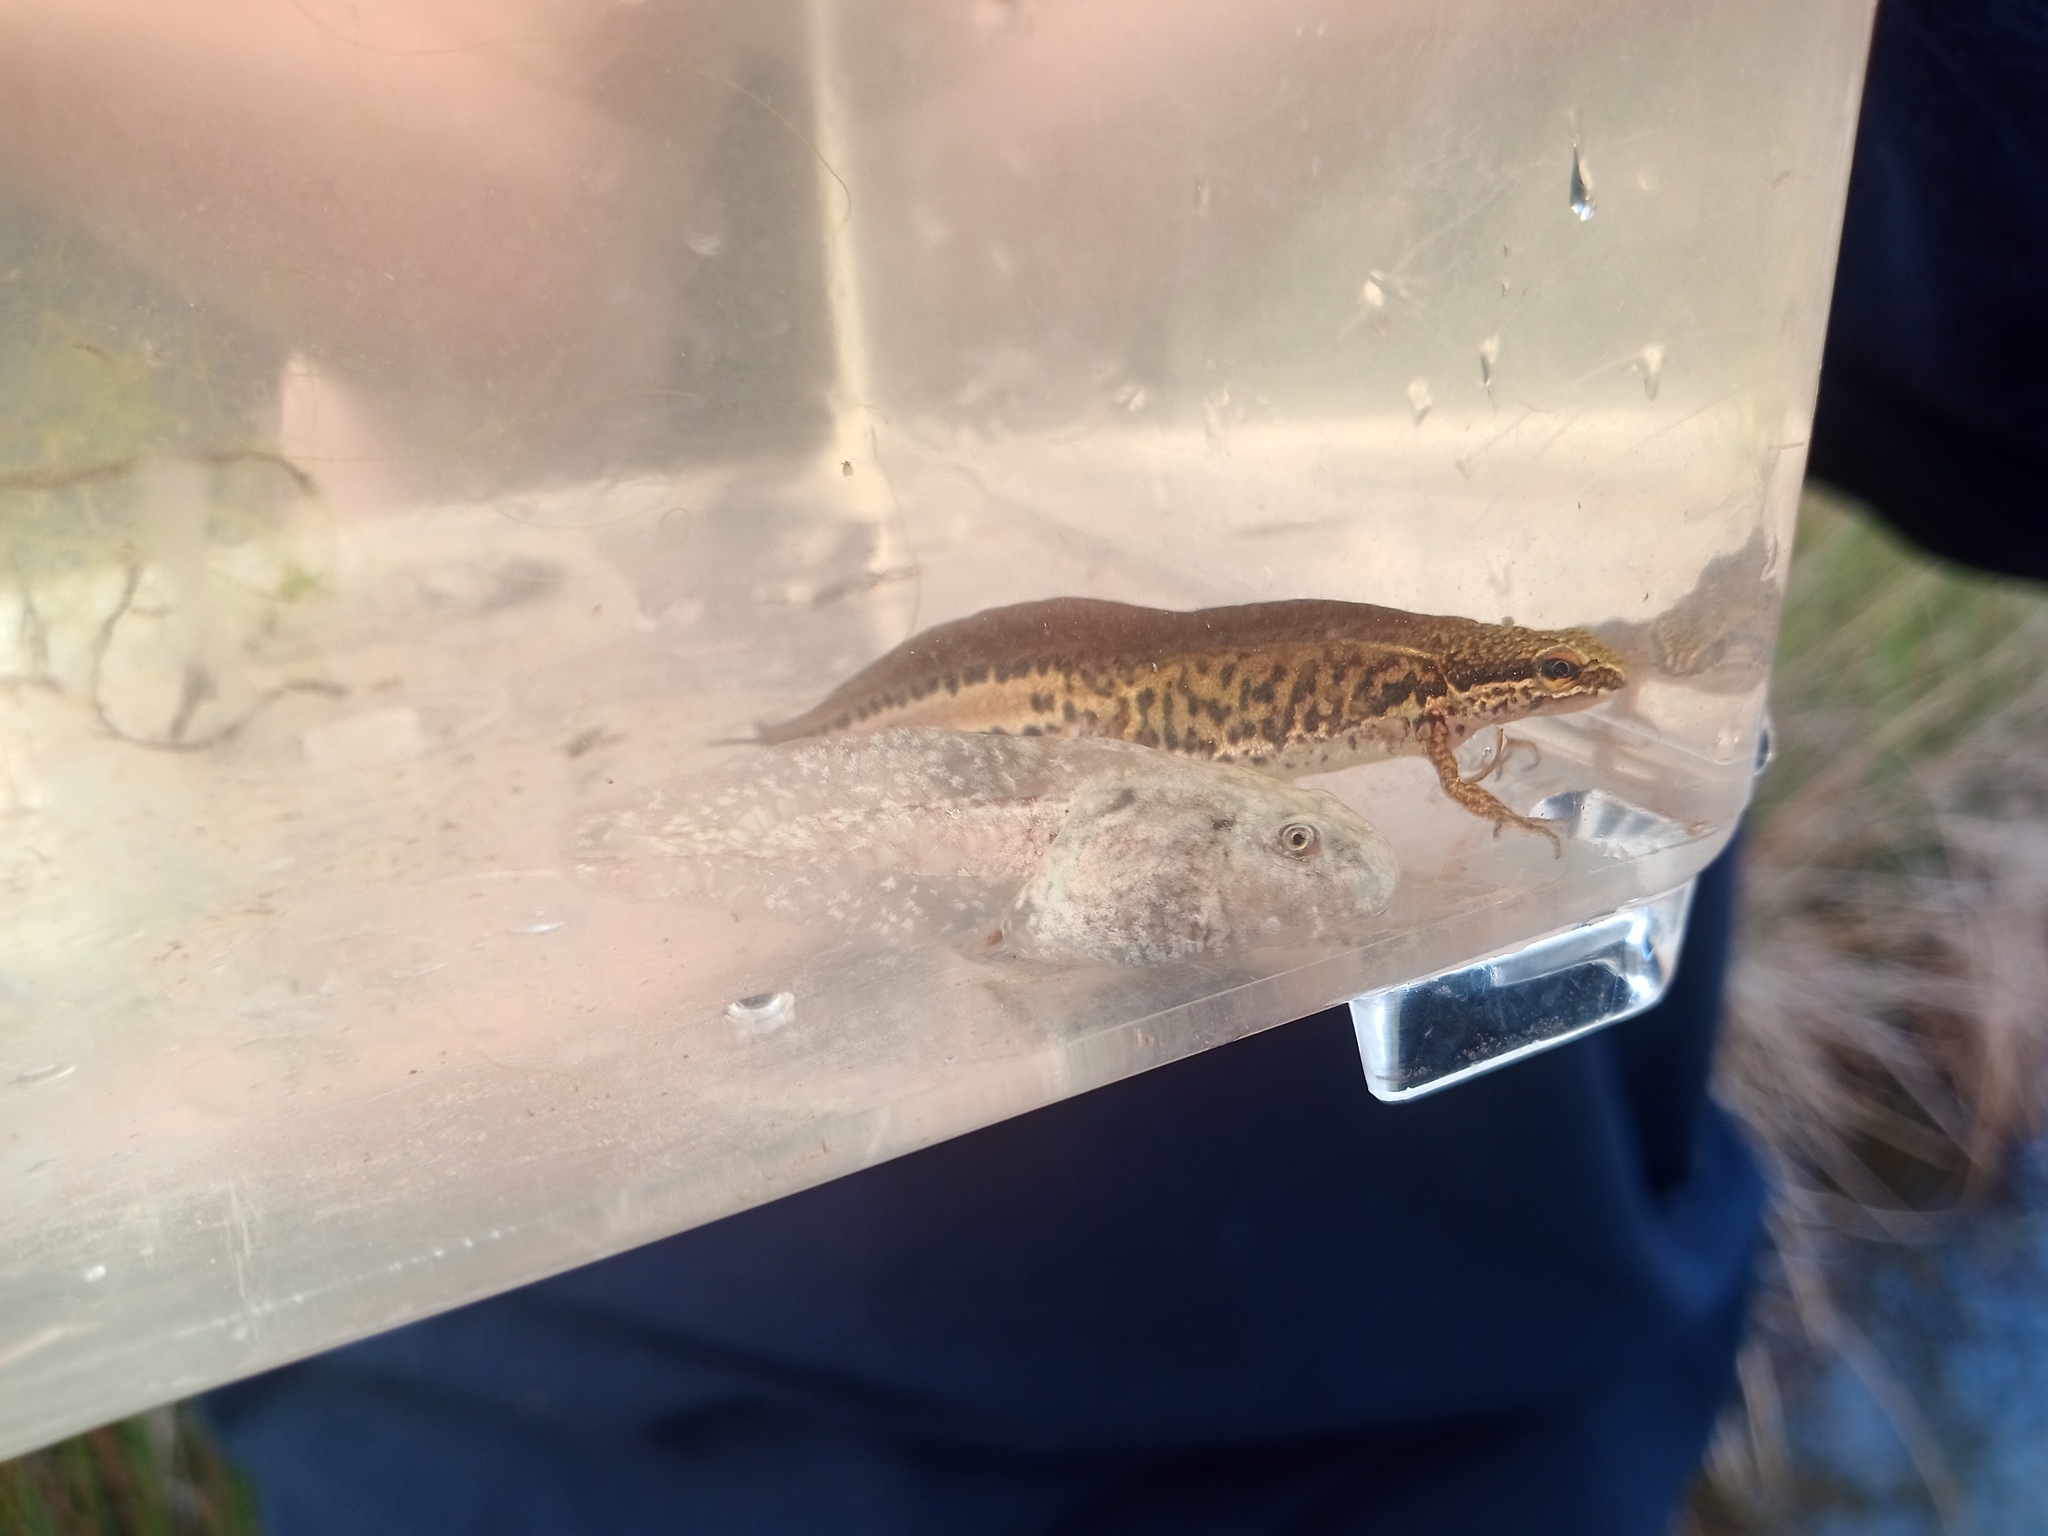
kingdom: Animalia
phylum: Chordata
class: Amphibia
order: Caudata
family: Salamandridae
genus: Lissotriton
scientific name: Lissotriton helveticus
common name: Palmate newt
